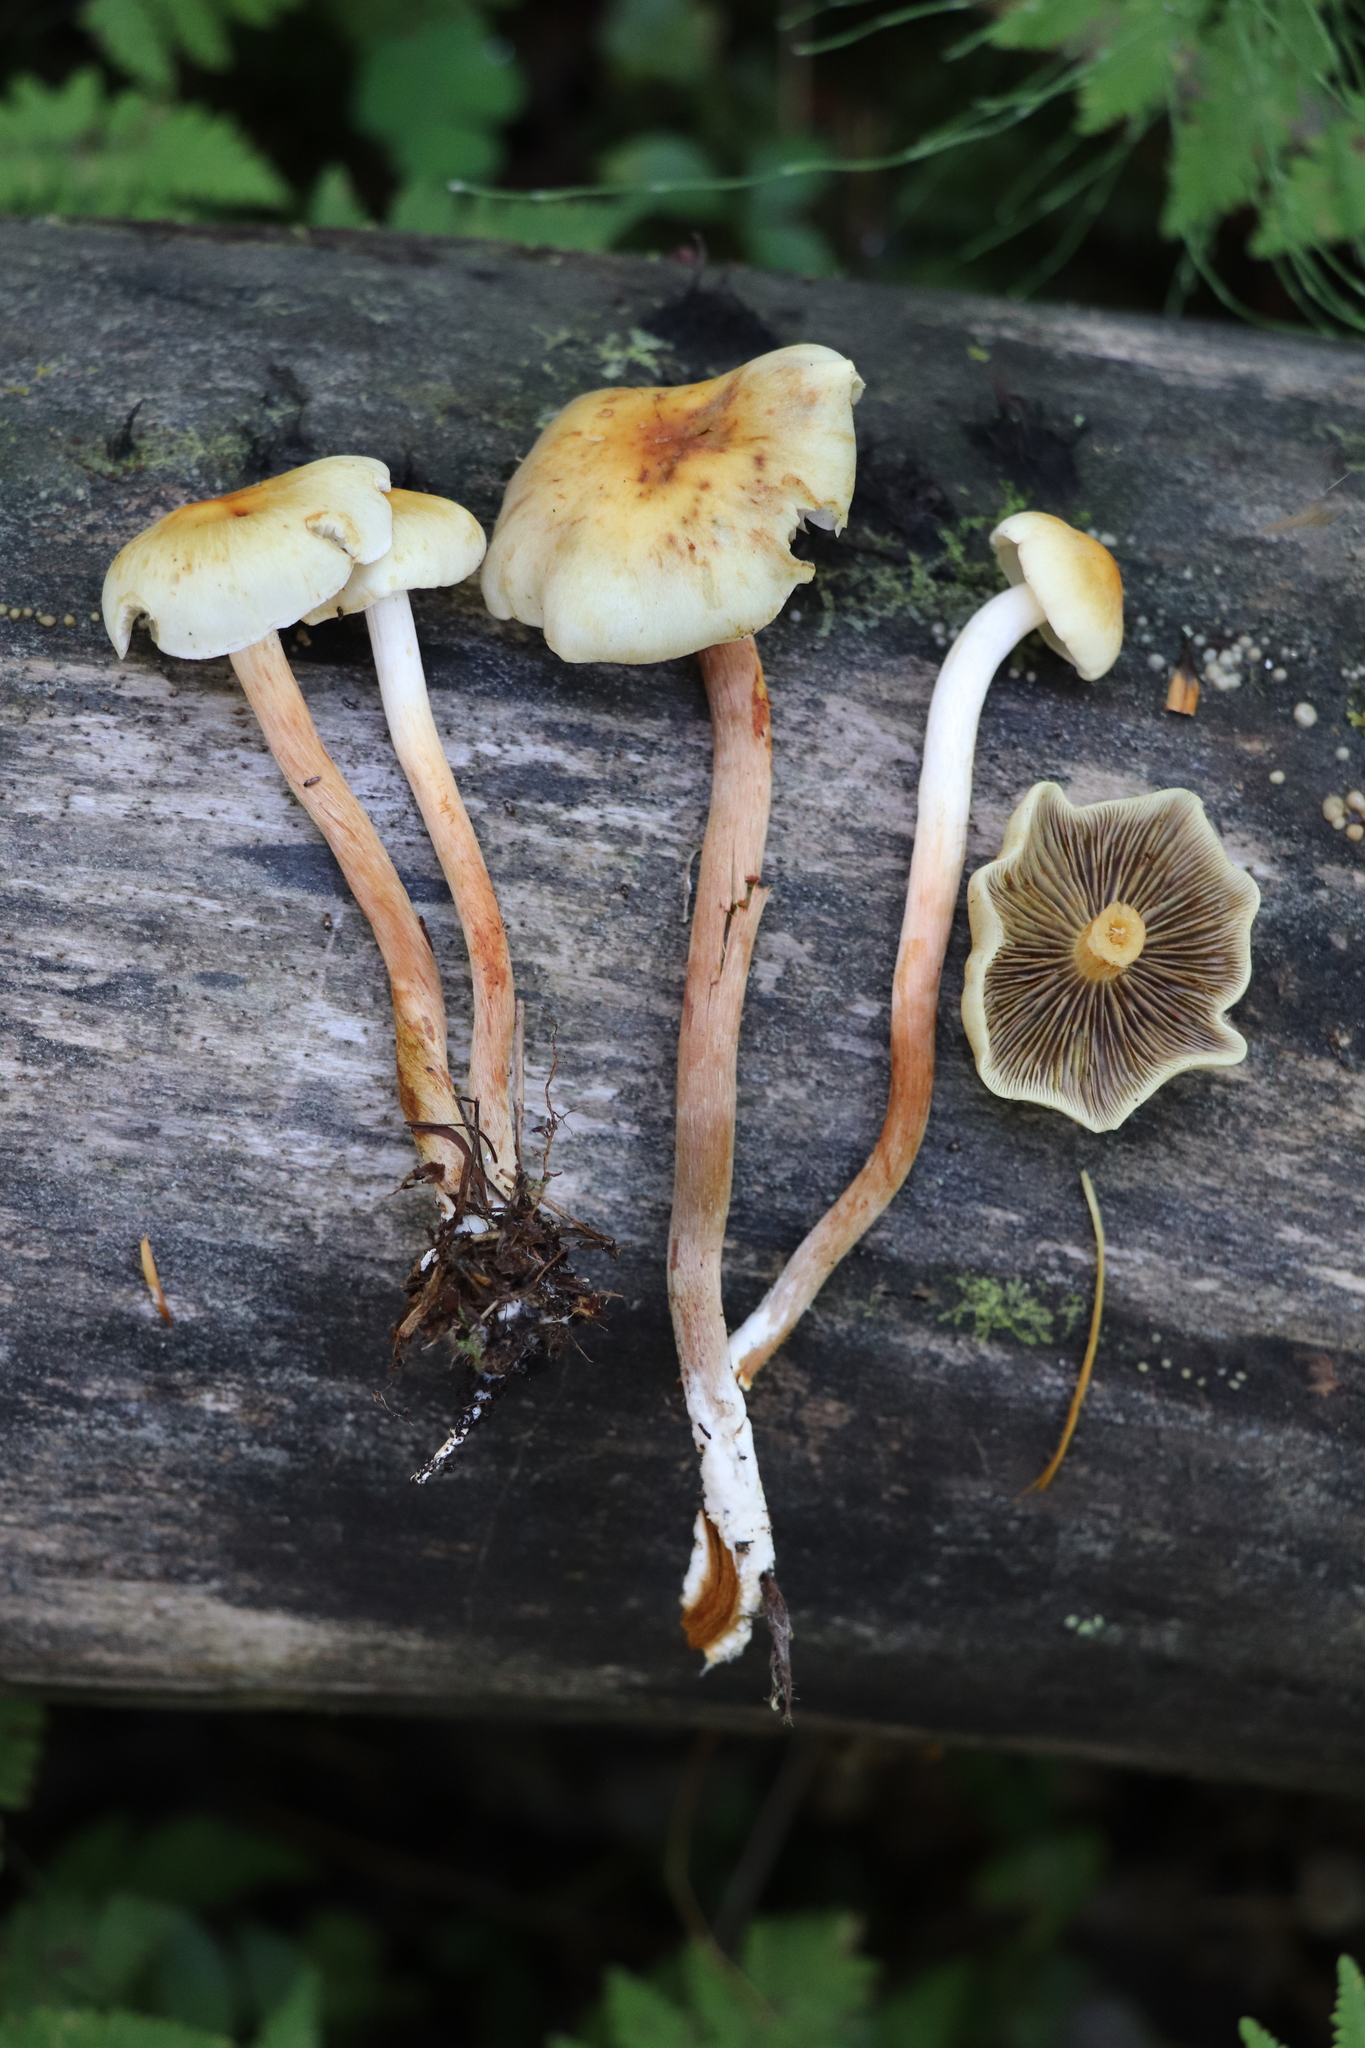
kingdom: Fungi
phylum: Basidiomycota
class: Agaricomycetes
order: Agaricales
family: Strophariaceae
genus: Hypholoma
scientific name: Hypholoma capnoides
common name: Conifer tuft
